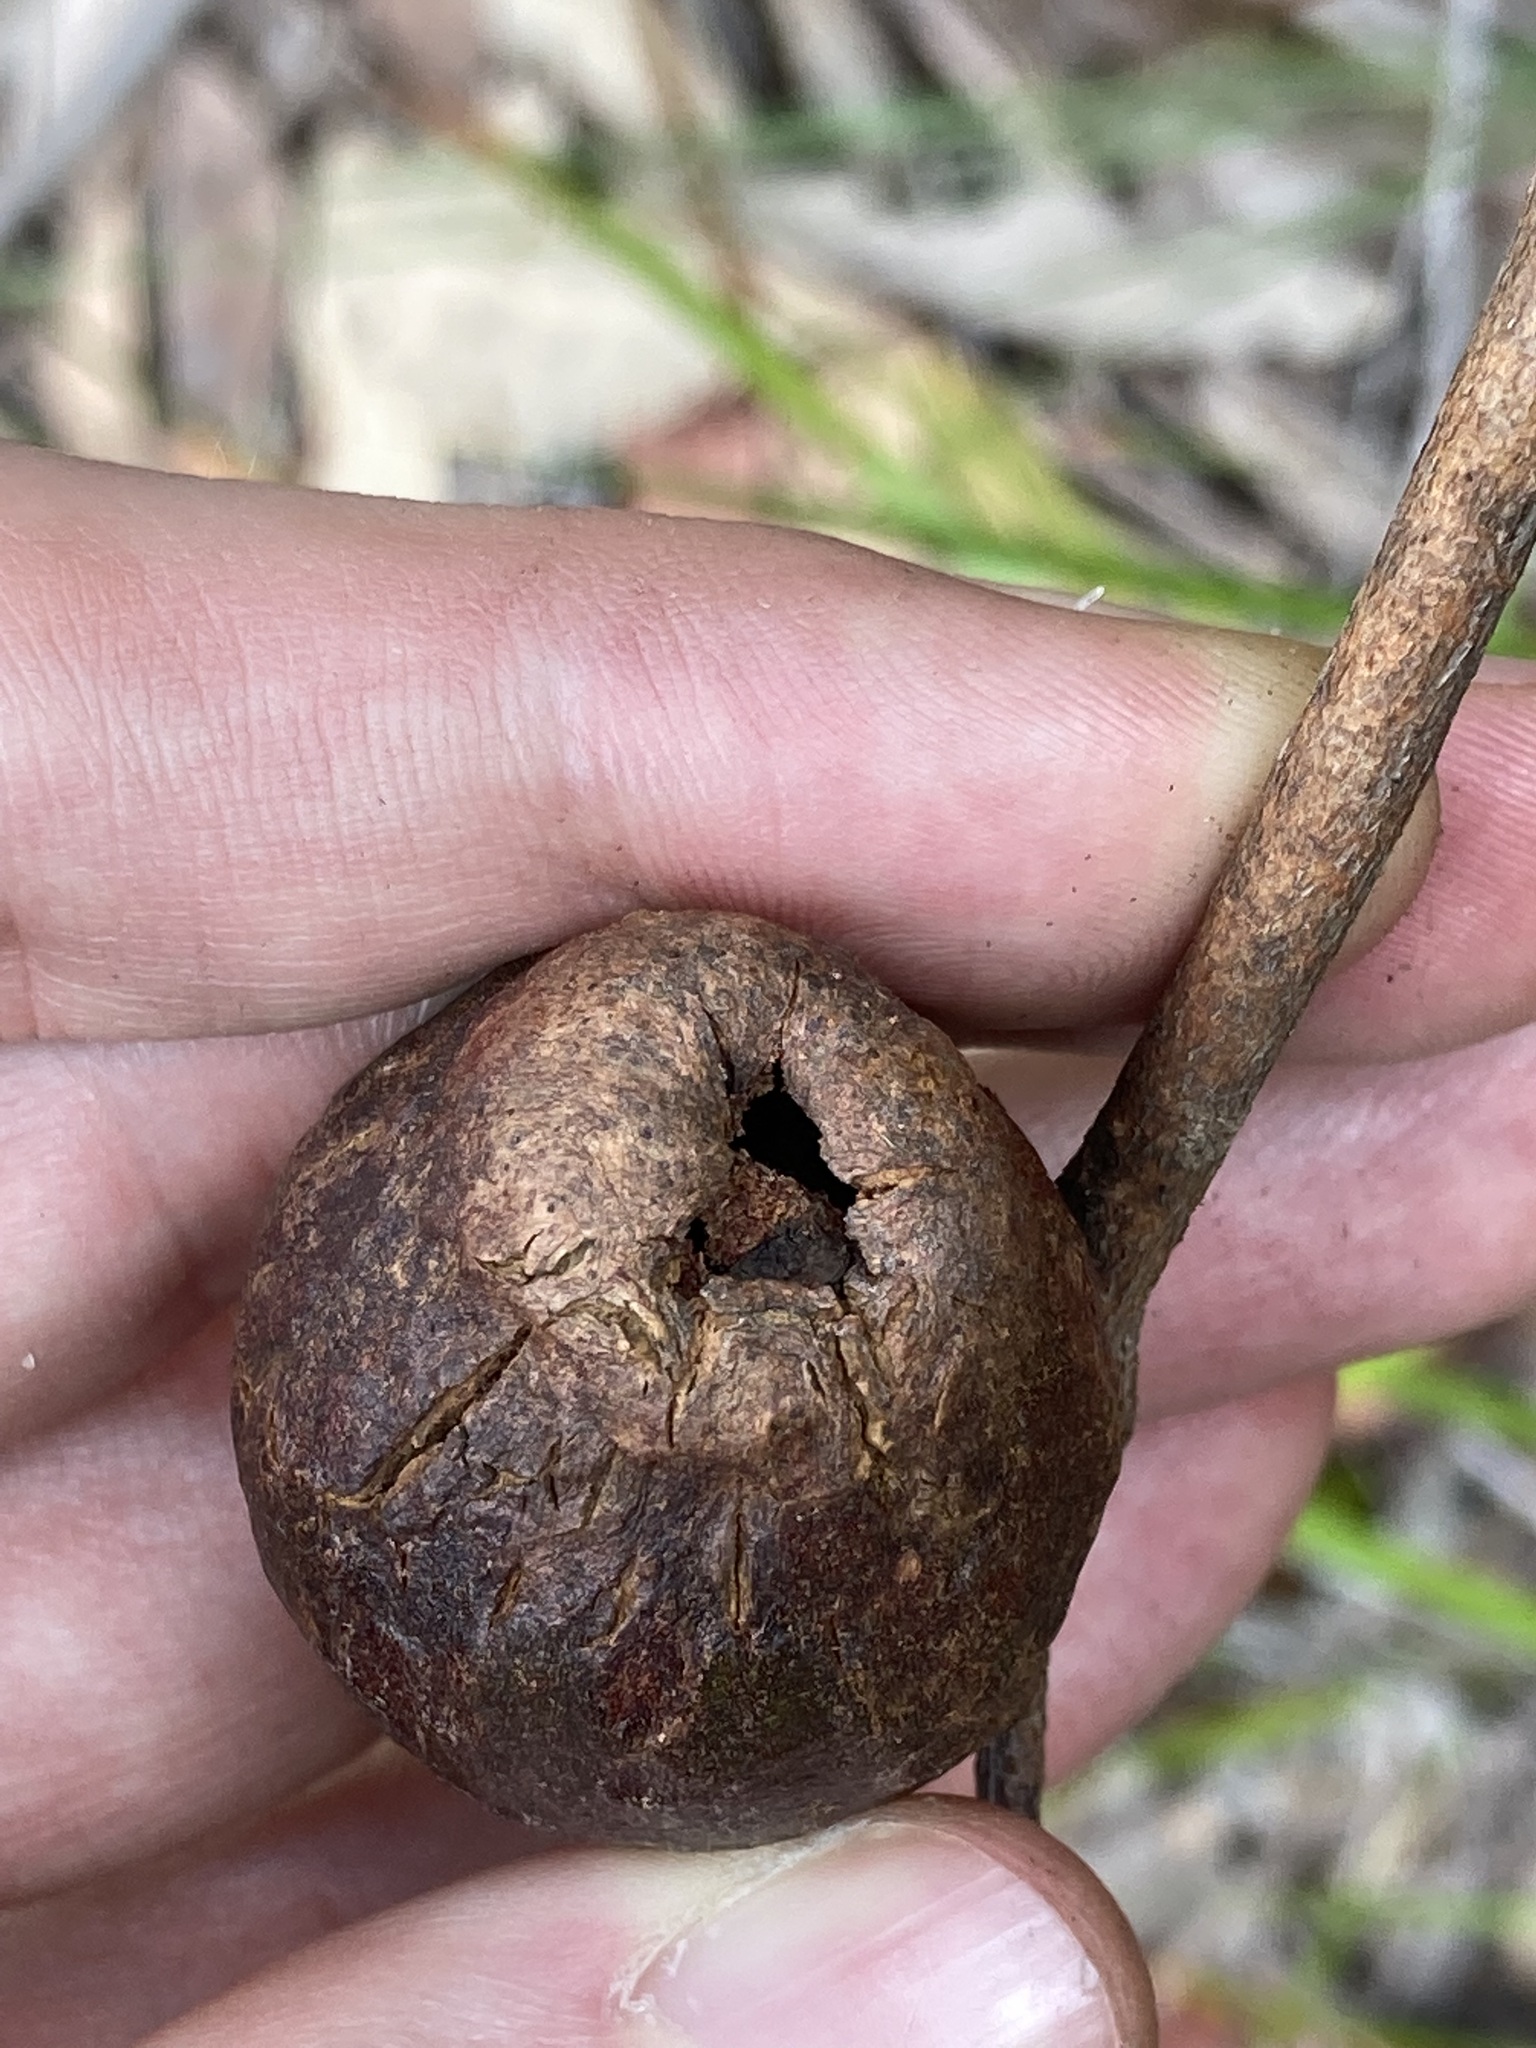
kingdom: Animalia
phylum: Arthropoda
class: Insecta
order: Hemiptera
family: Eriococcidae
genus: Apiomorpha
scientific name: Apiomorpha variabilis
